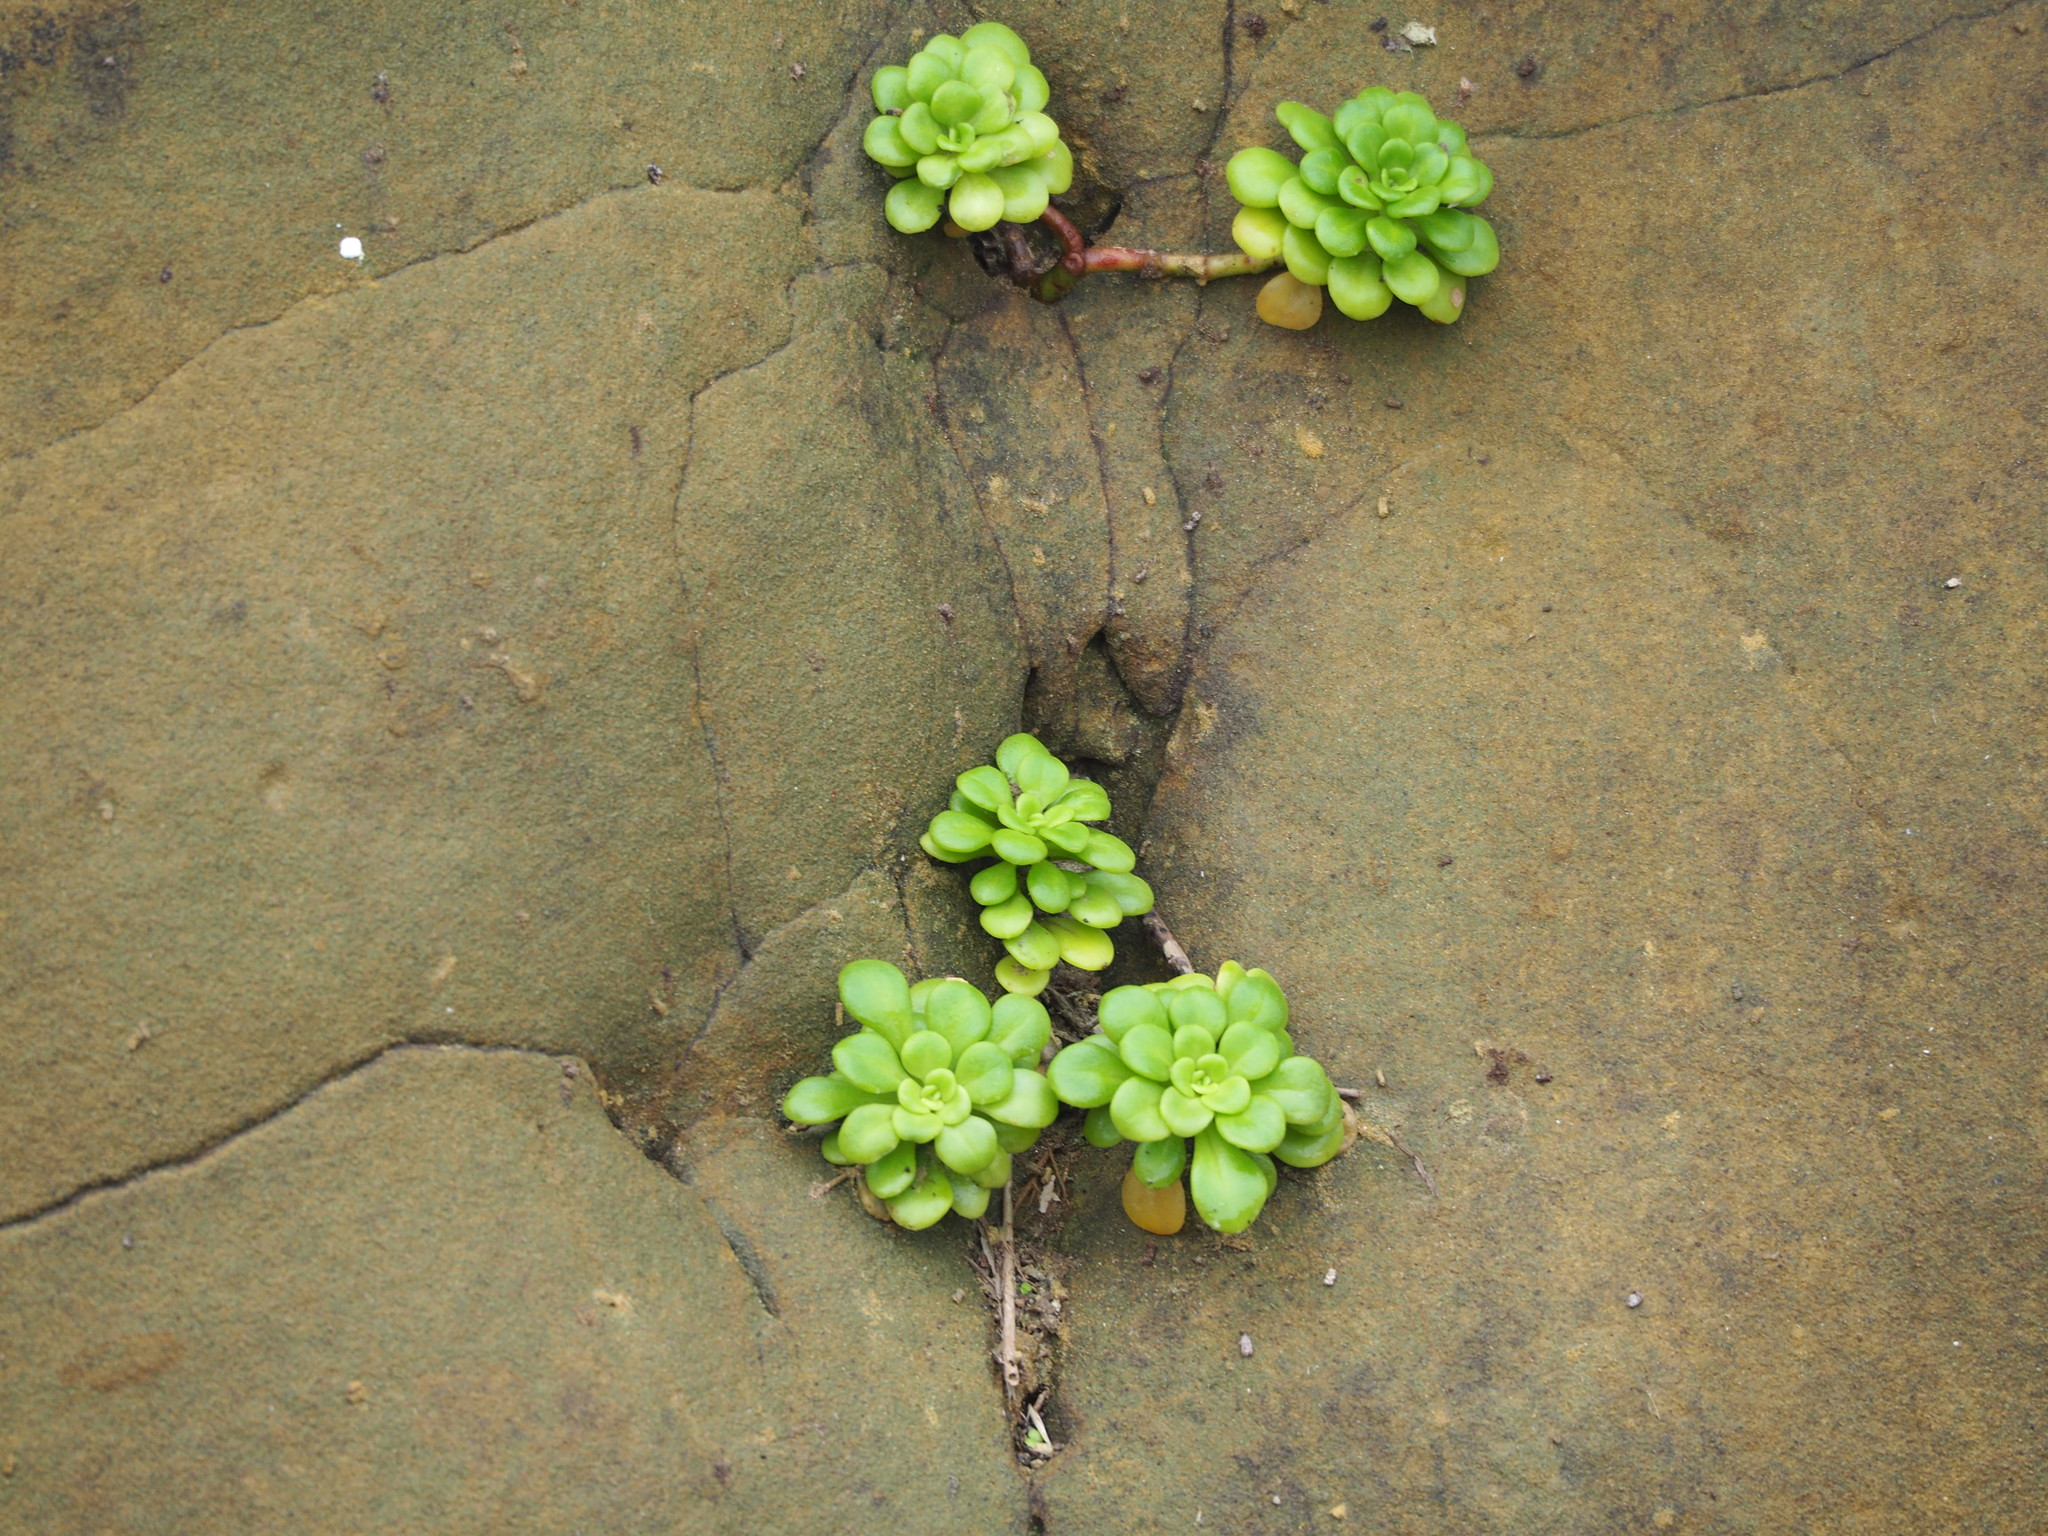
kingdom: Plantae
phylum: Tracheophyta
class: Magnoliopsida
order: Saxifragales
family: Crassulaceae
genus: Sedum
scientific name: Sedum formosanum
